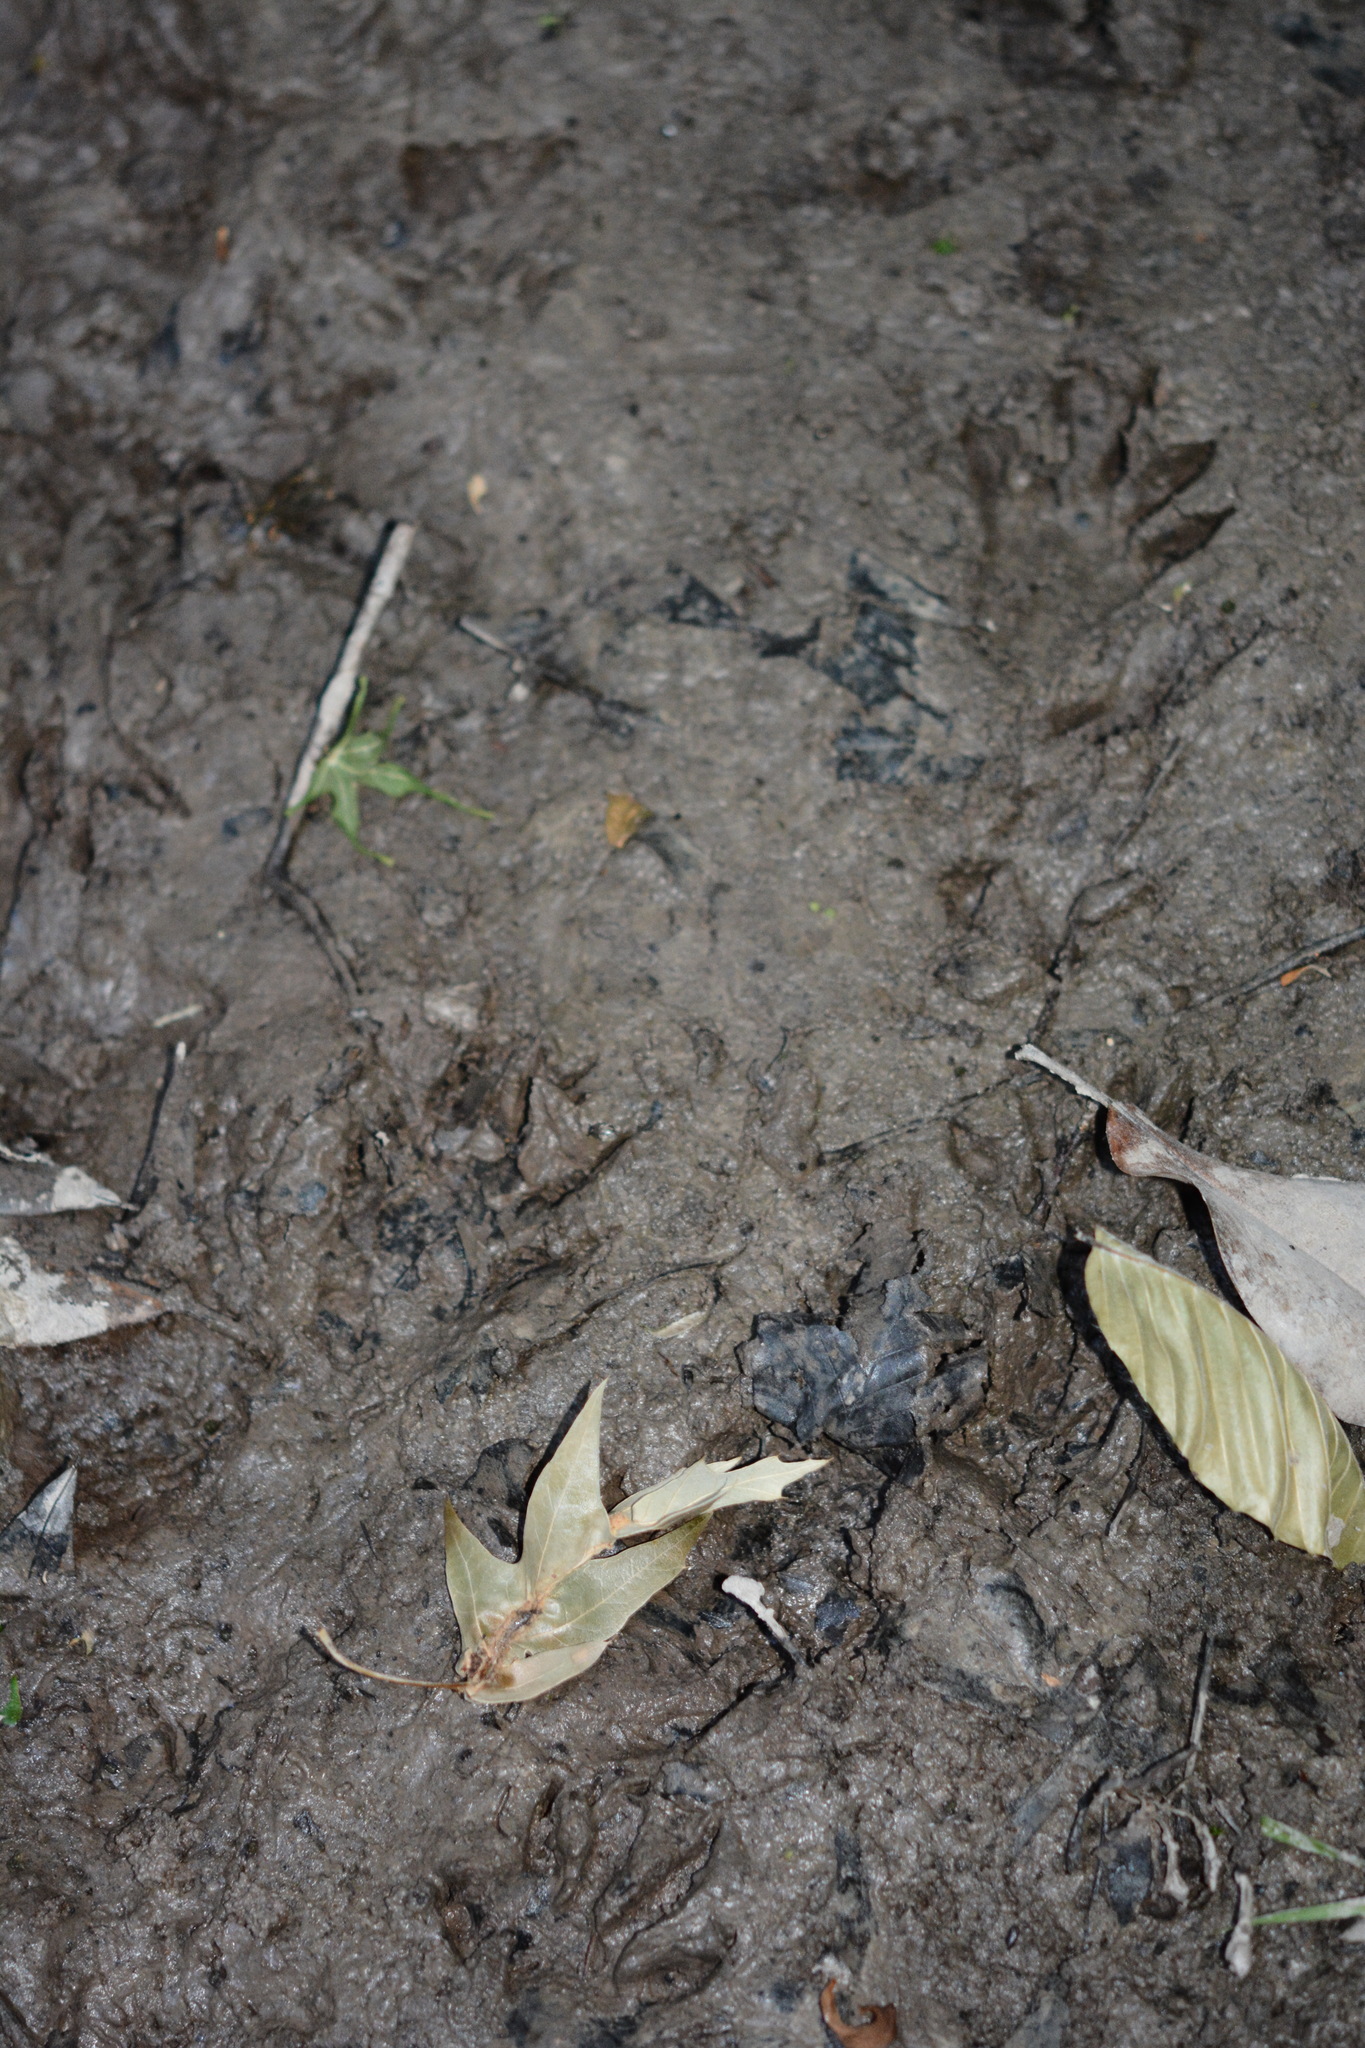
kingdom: Animalia
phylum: Chordata
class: Mammalia
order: Carnivora
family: Procyonidae
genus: Procyon
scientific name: Procyon lotor
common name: Raccoon
